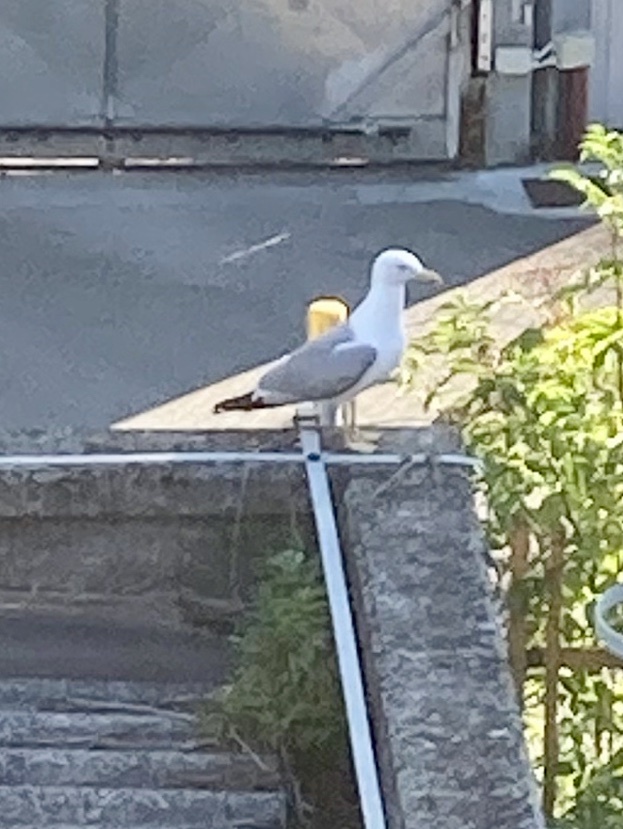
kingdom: Animalia
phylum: Chordata
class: Aves
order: Charadriiformes
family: Laridae
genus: Larus
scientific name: Larus michahellis
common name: Yellow-legged gull
